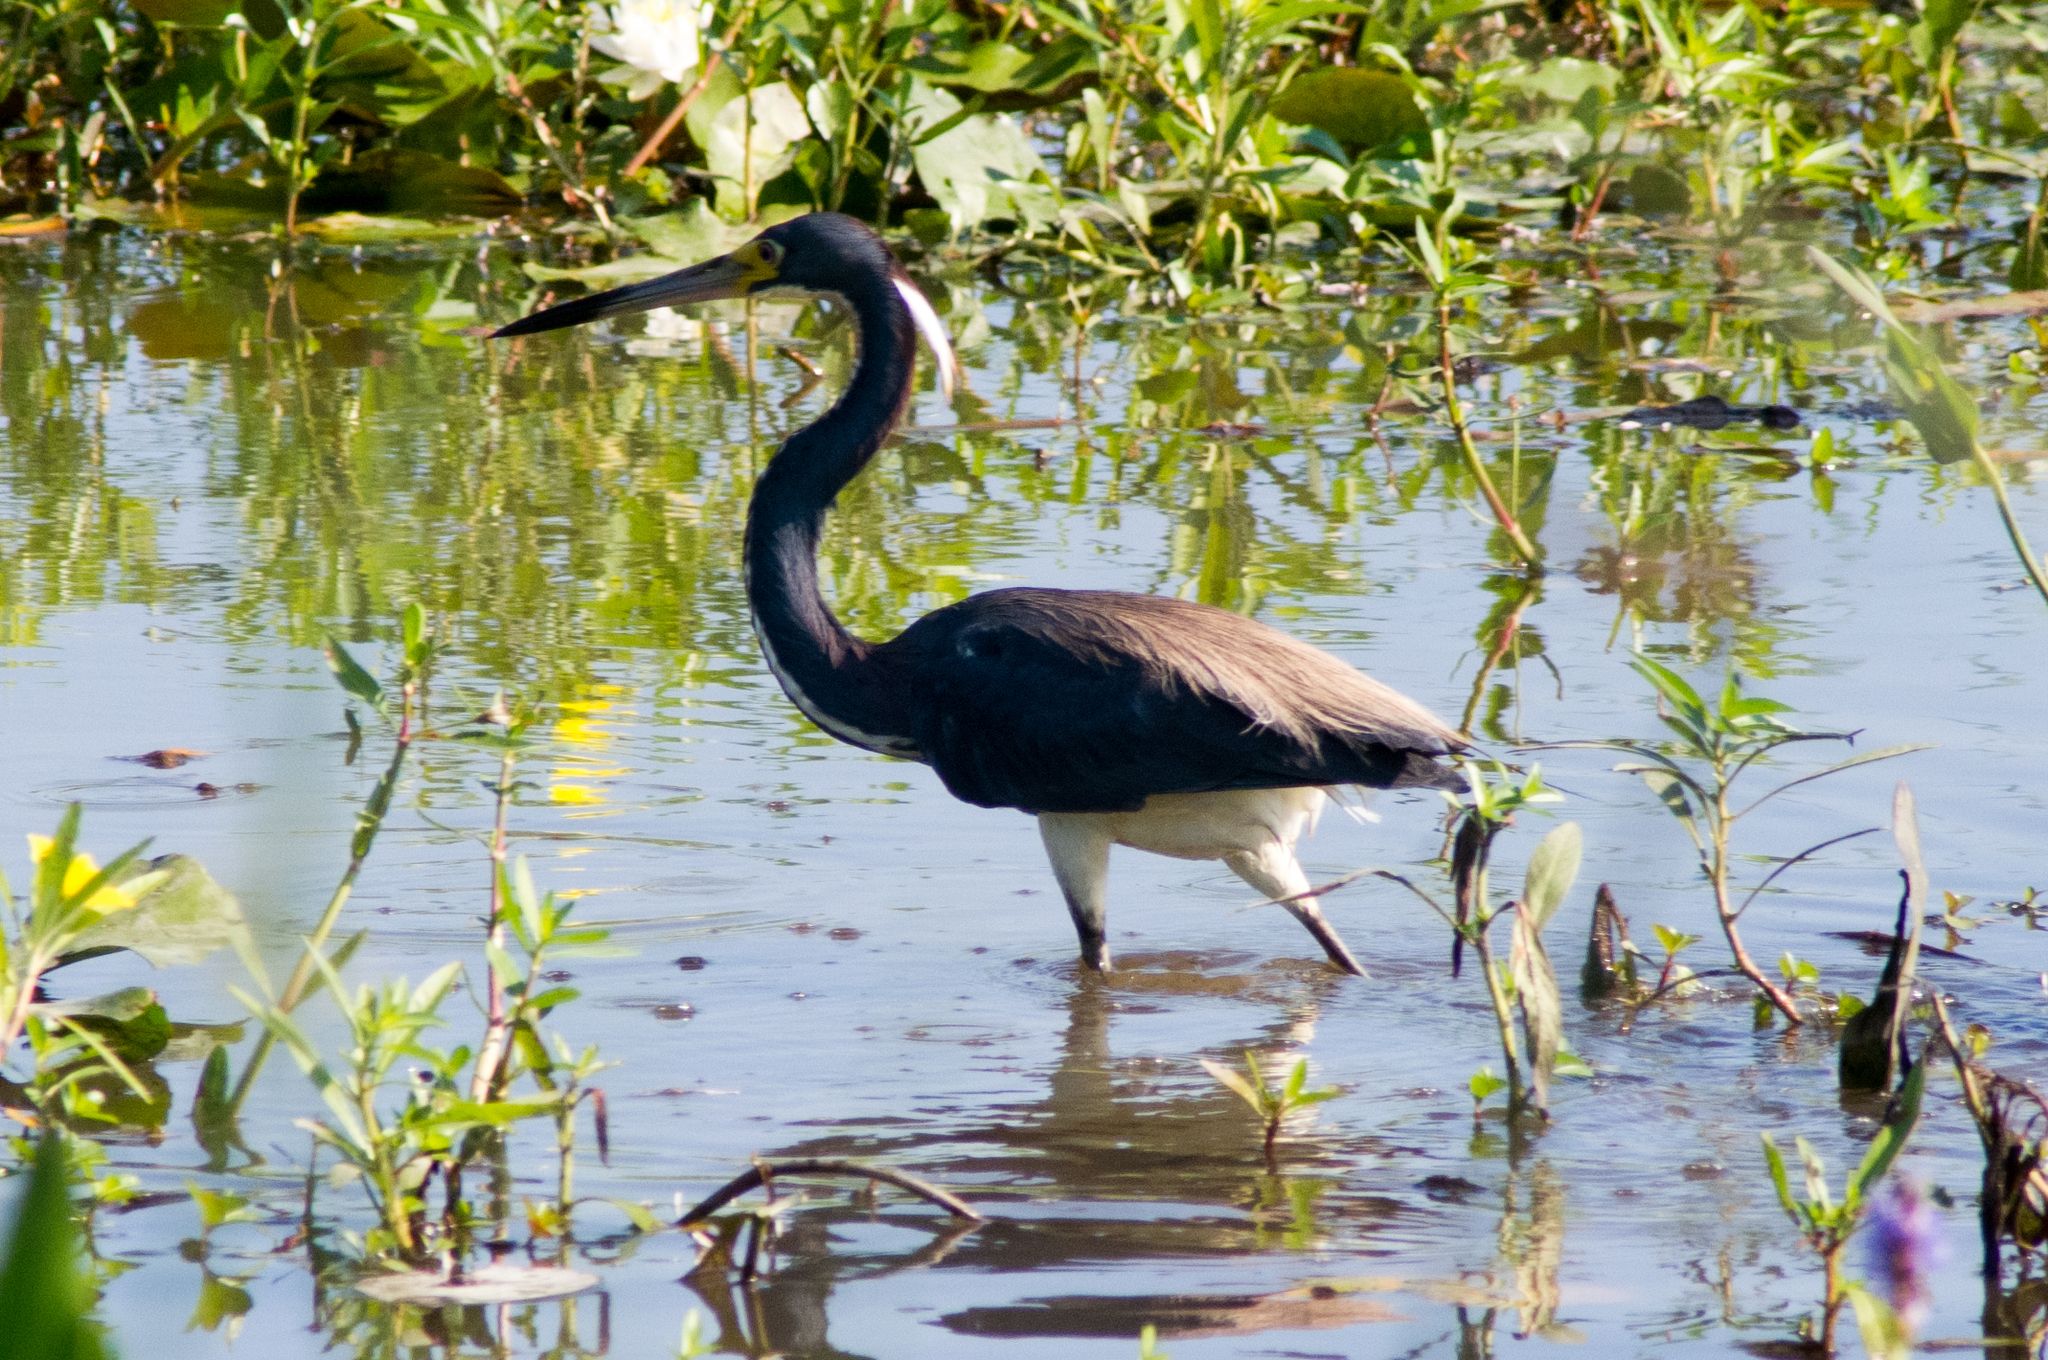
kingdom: Animalia
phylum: Chordata
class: Aves
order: Pelecaniformes
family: Ardeidae
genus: Egretta
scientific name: Egretta tricolor
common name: Tricolored heron
